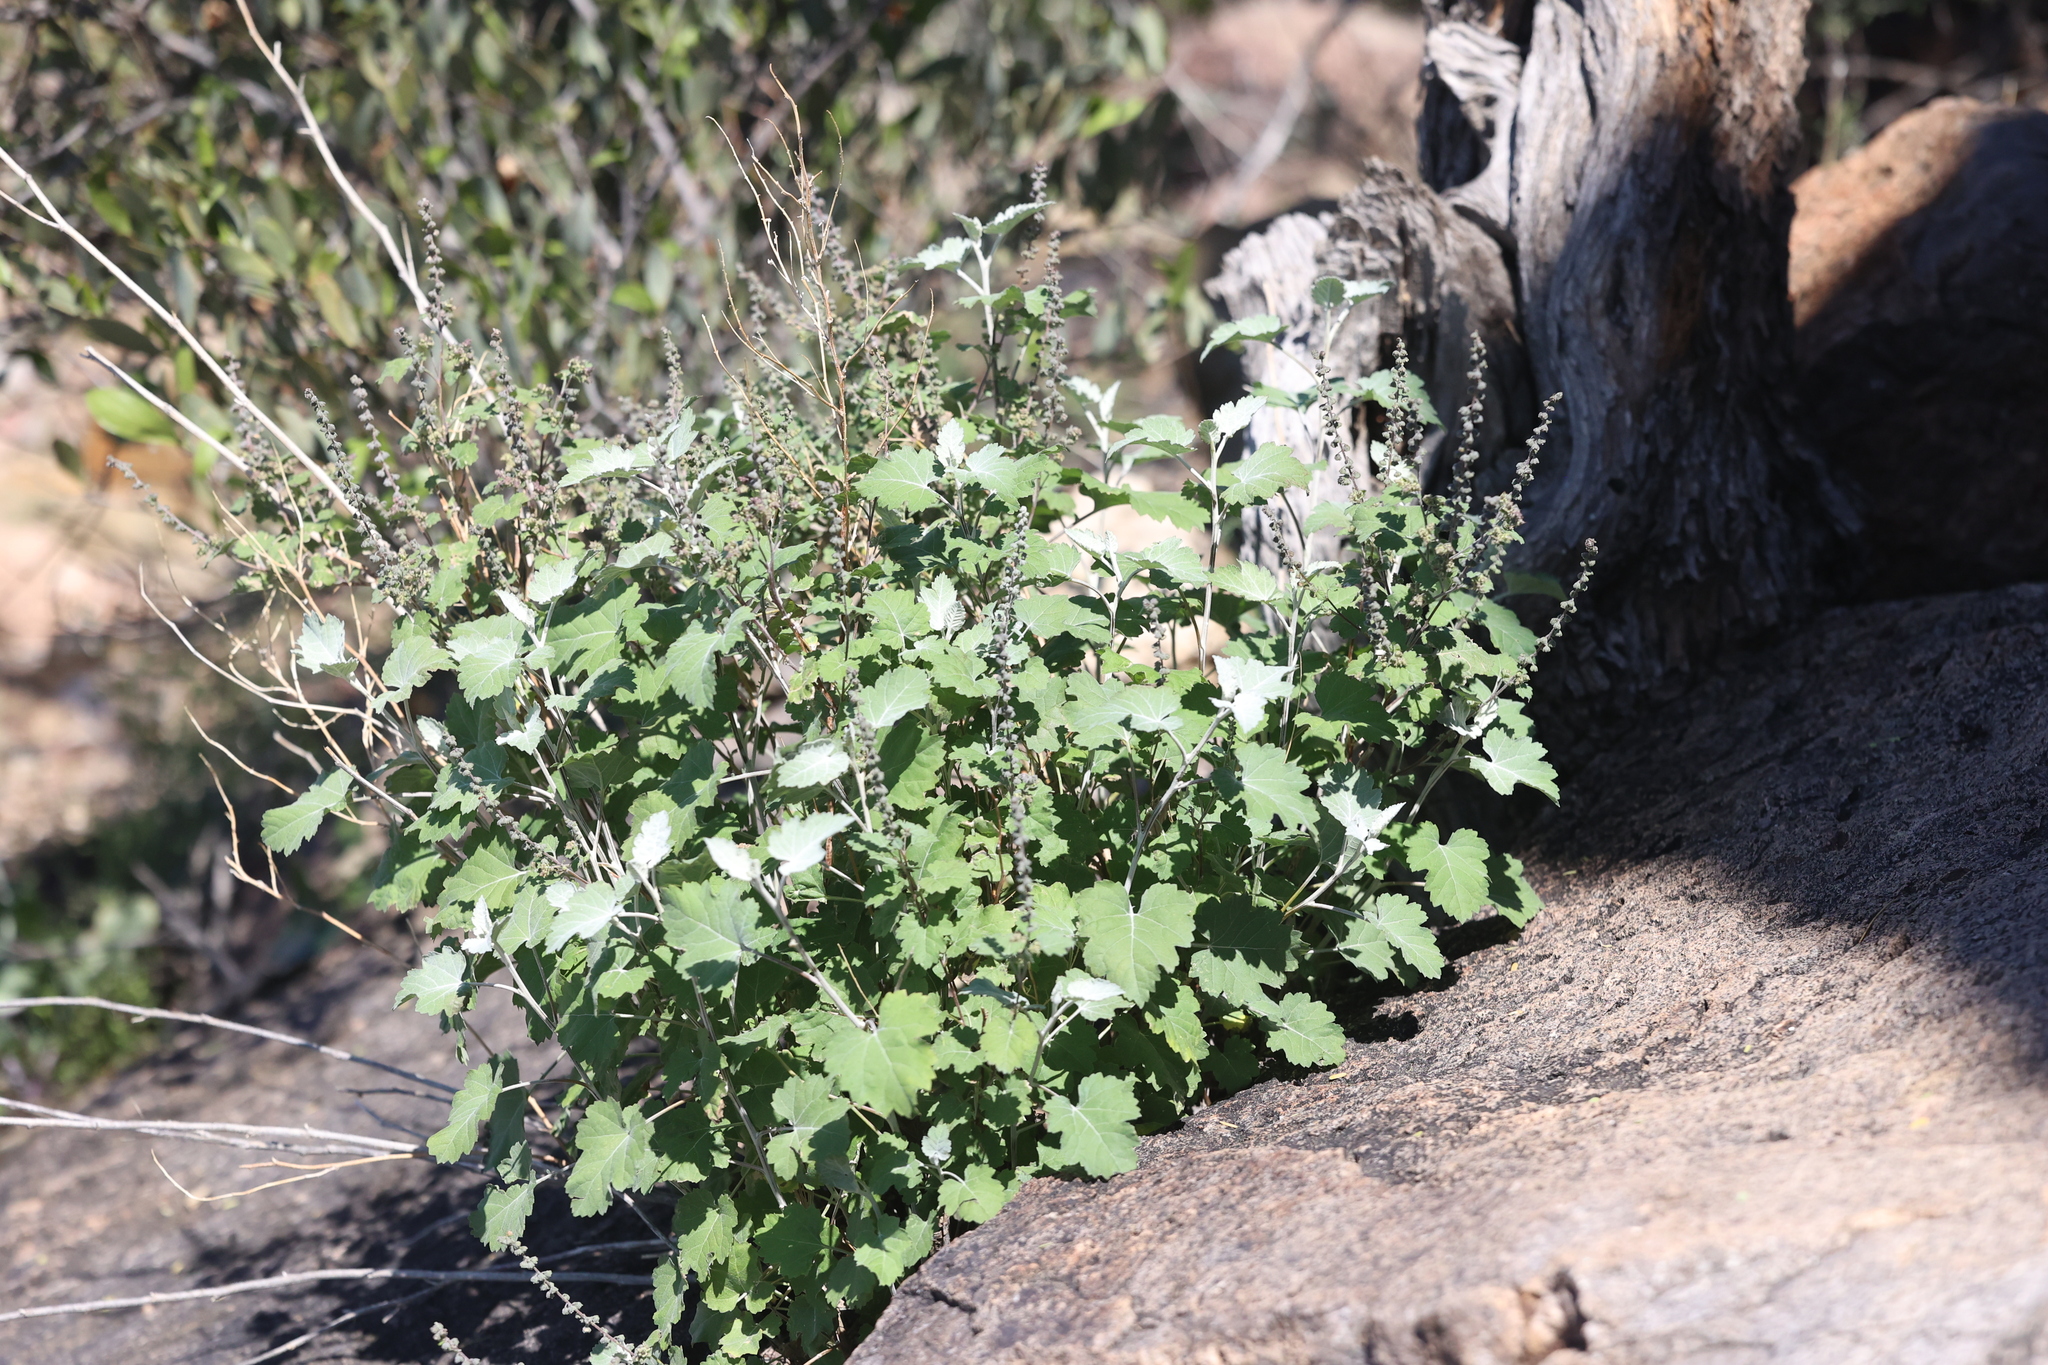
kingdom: Plantae
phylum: Tracheophyta
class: Magnoliopsida
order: Asterales
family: Asteraceae
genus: Ambrosia
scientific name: Ambrosia cordifolia
